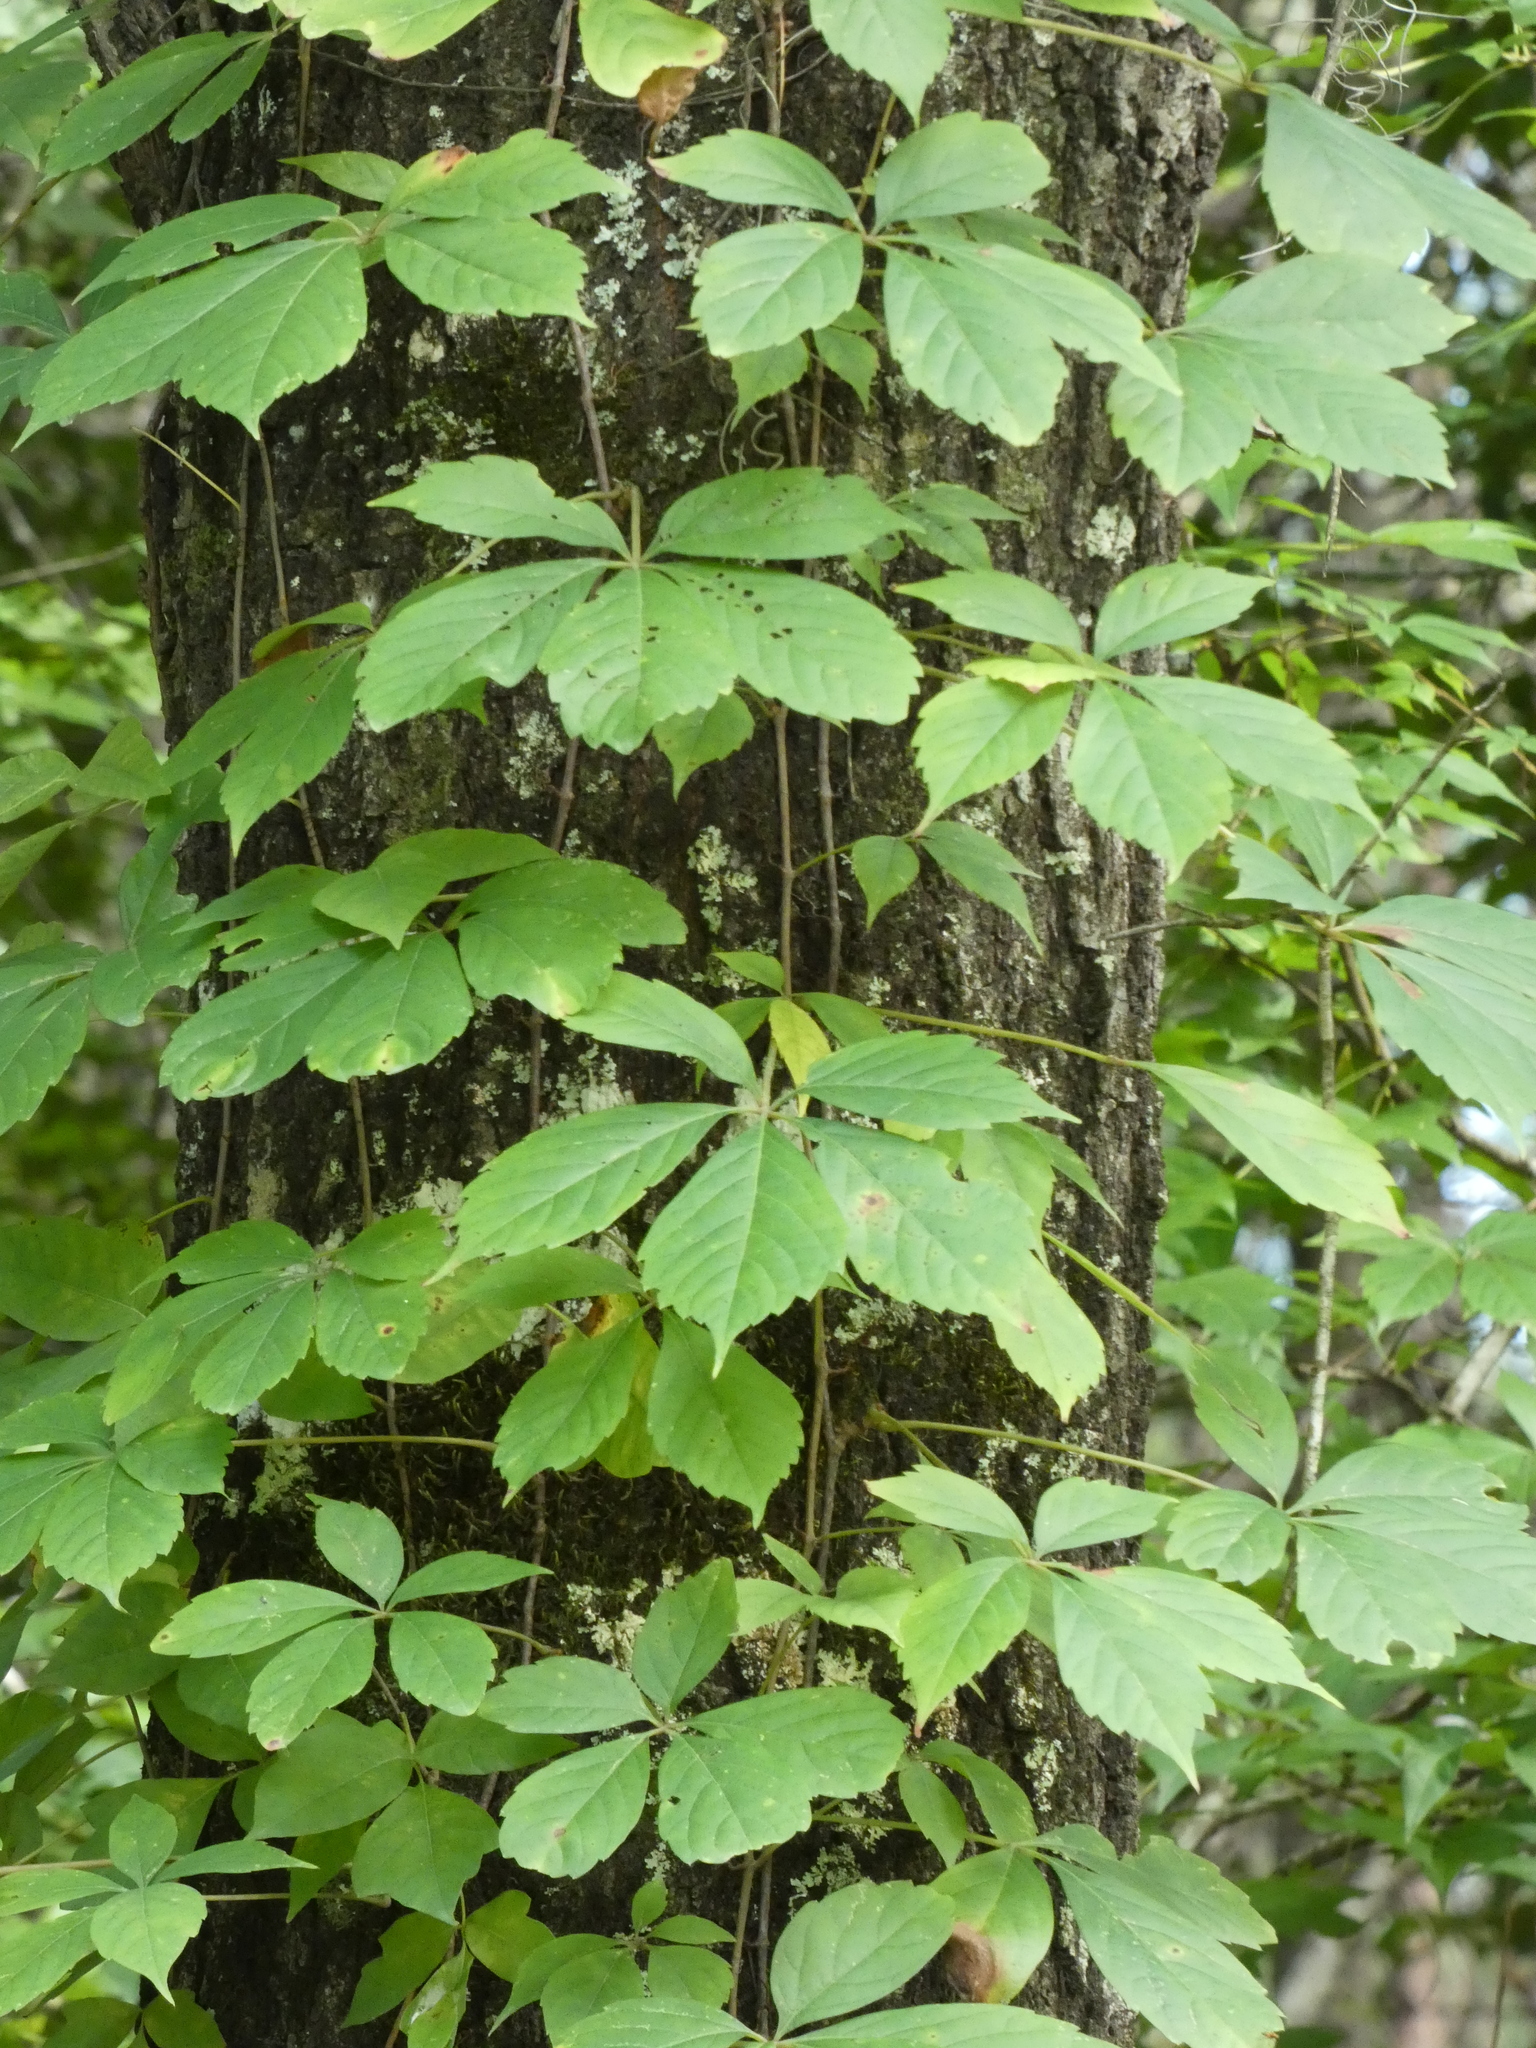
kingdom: Plantae
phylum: Tracheophyta
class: Magnoliopsida
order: Vitales
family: Vitaceae
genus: Parthenocissus
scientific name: Parthenocissus quinquefolia
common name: Virginia-creeper
